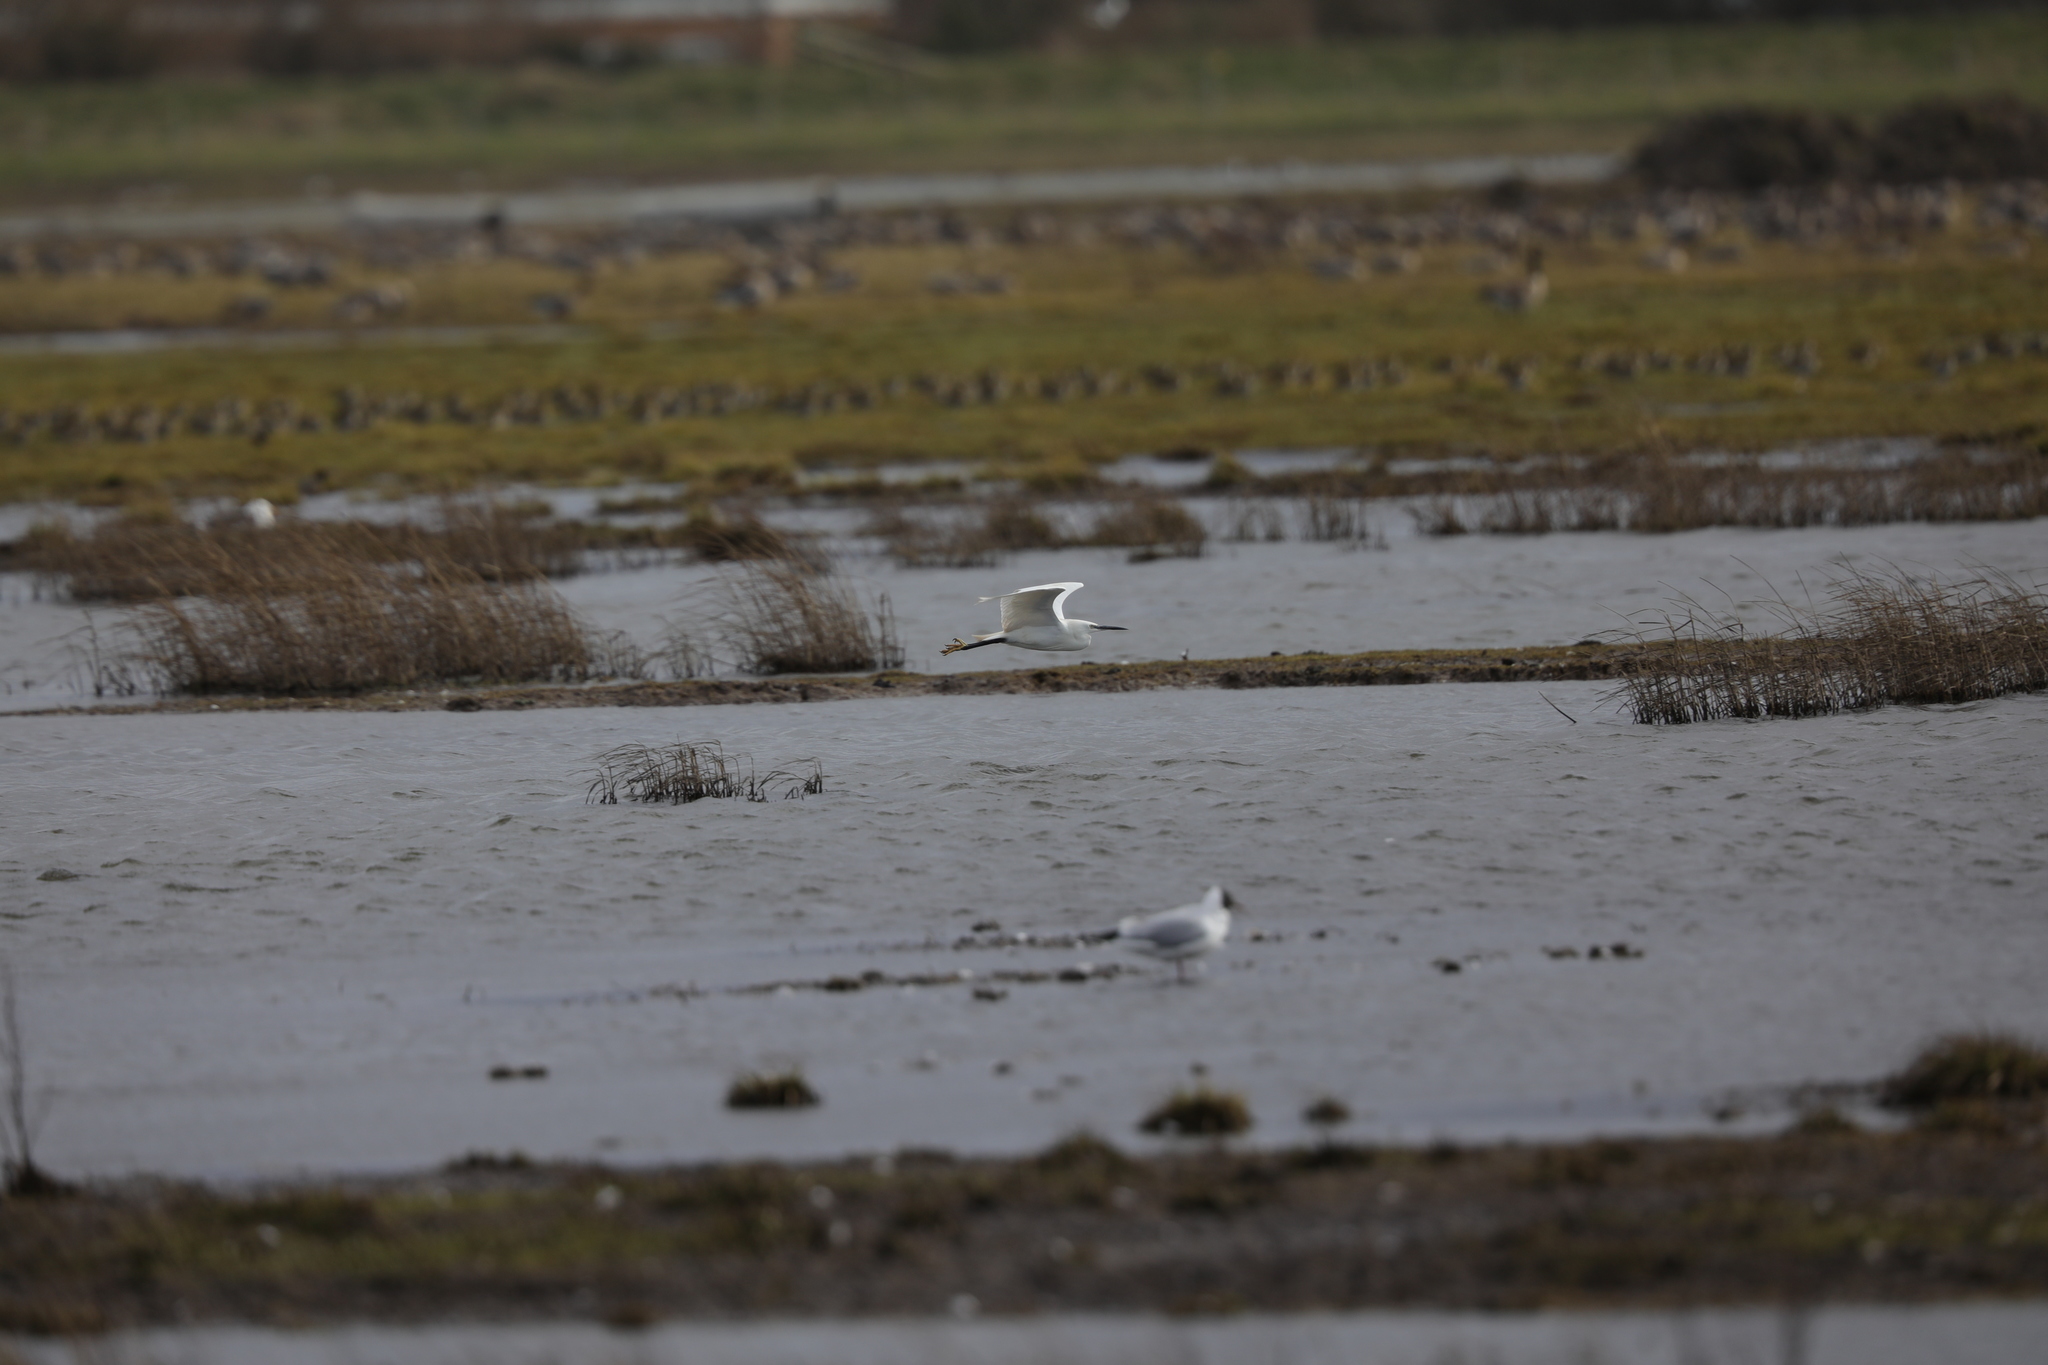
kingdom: Animalia
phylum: Chordata
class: Aves
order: Pelecaniformes
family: Ardeidae
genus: Egretta
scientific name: Egretta garzetta
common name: Little egret
